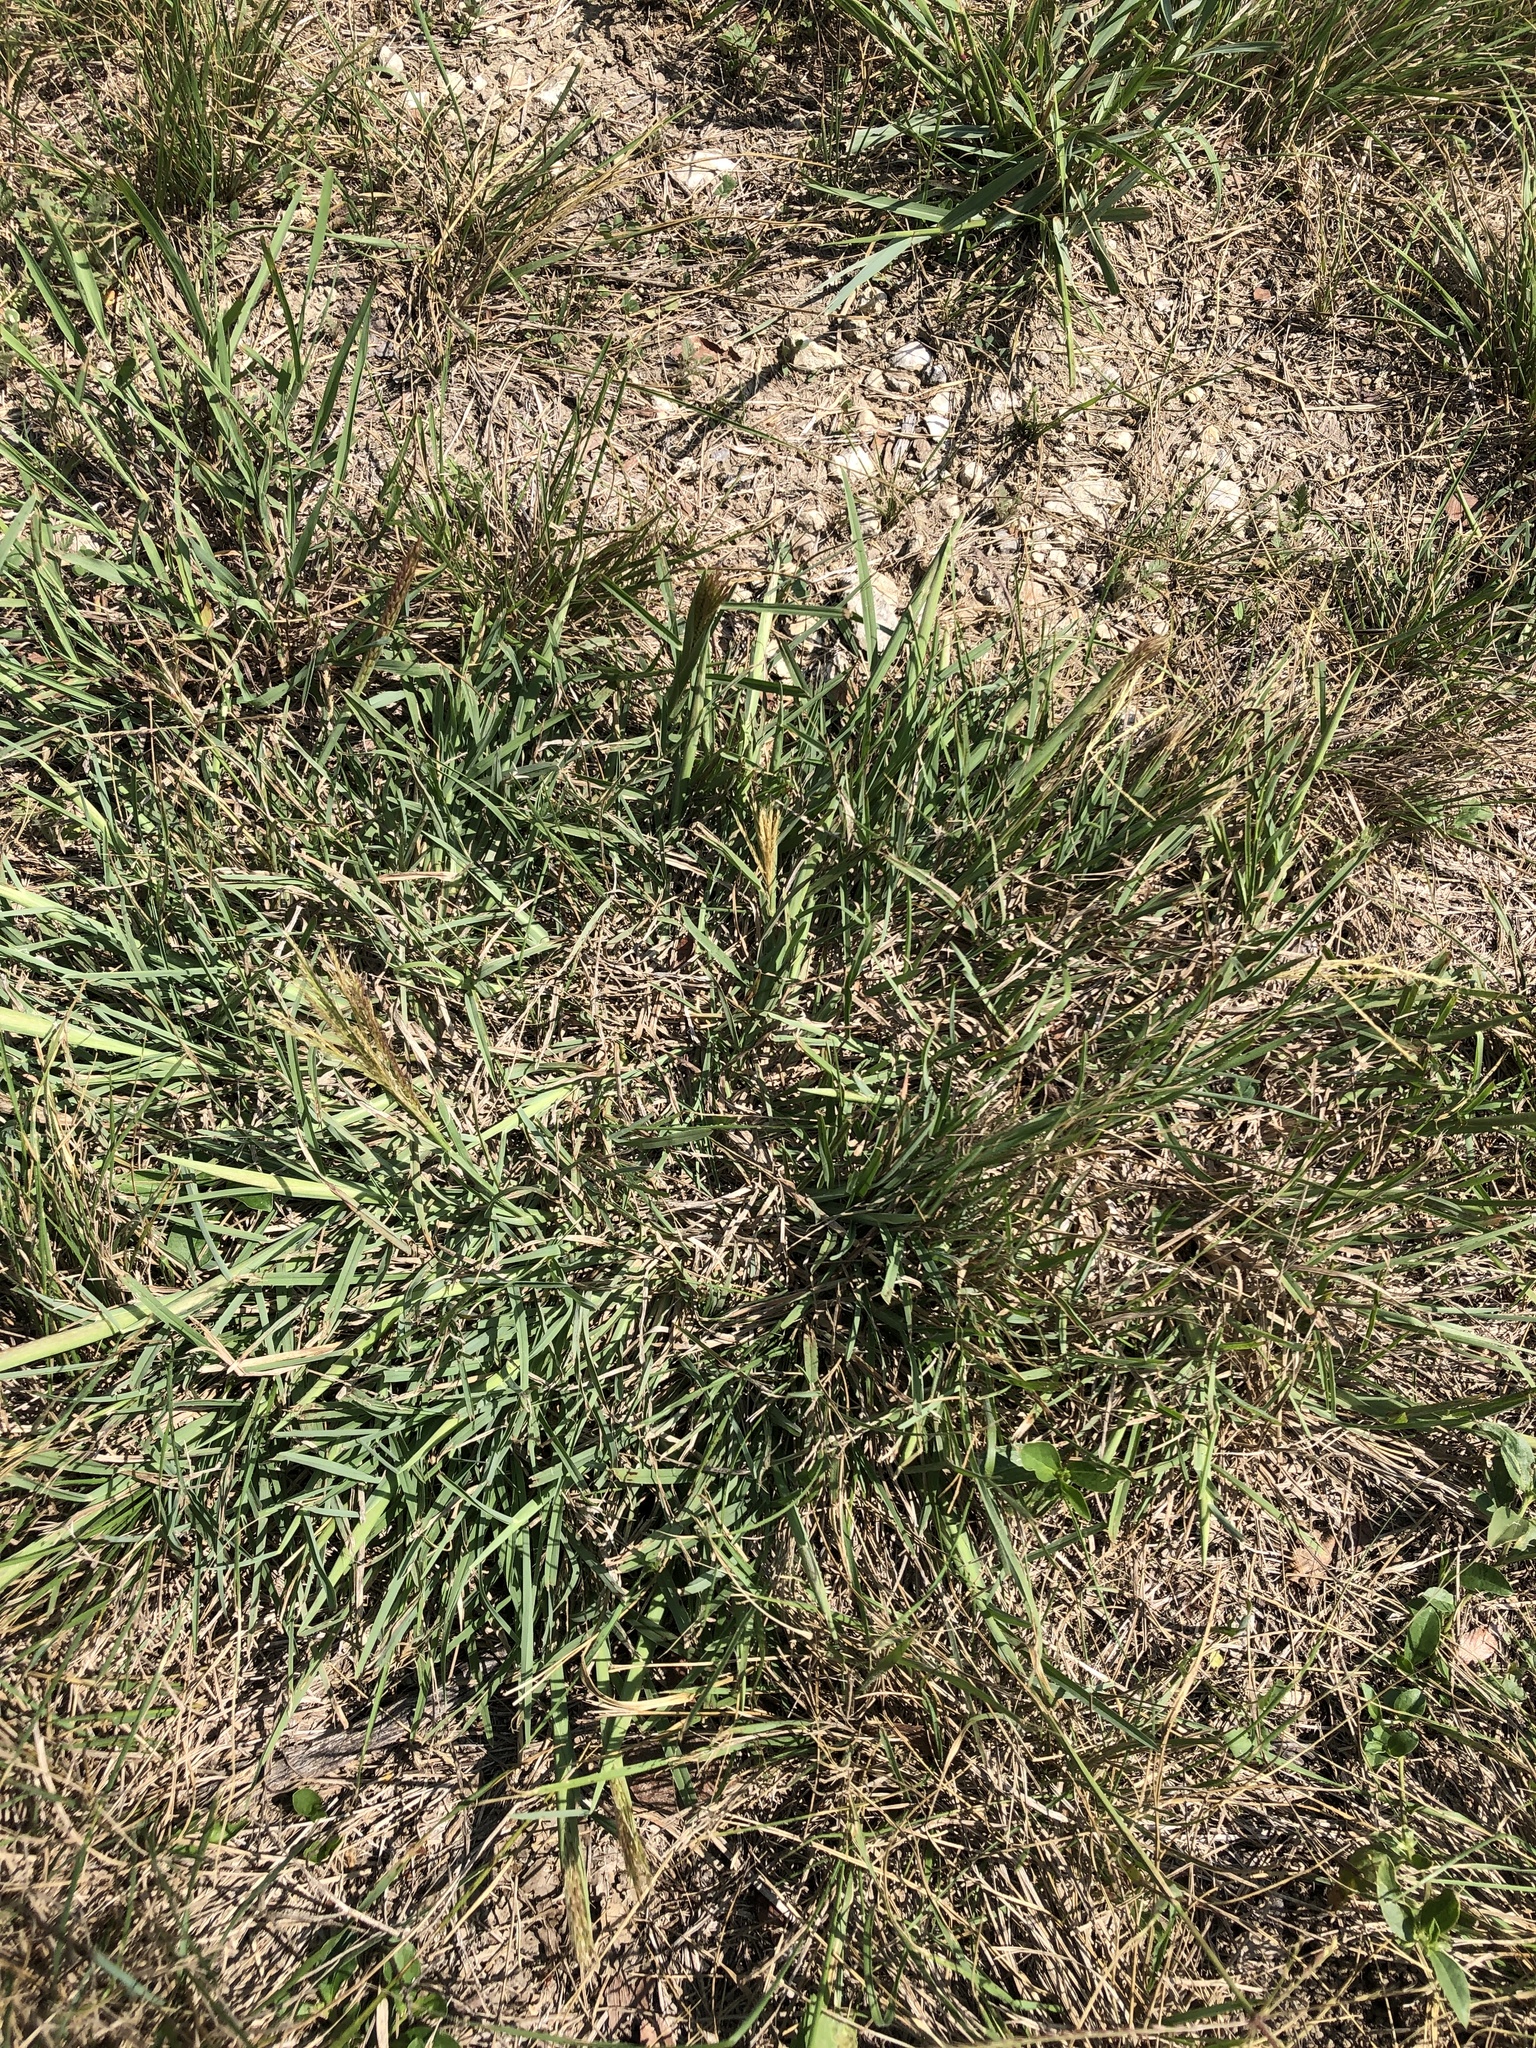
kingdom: Plantae
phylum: Tracheophyta
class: Liliopsida
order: Poales
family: Poaceae
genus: Chloris
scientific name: Chloris verticillata
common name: Tumble windmill grass
